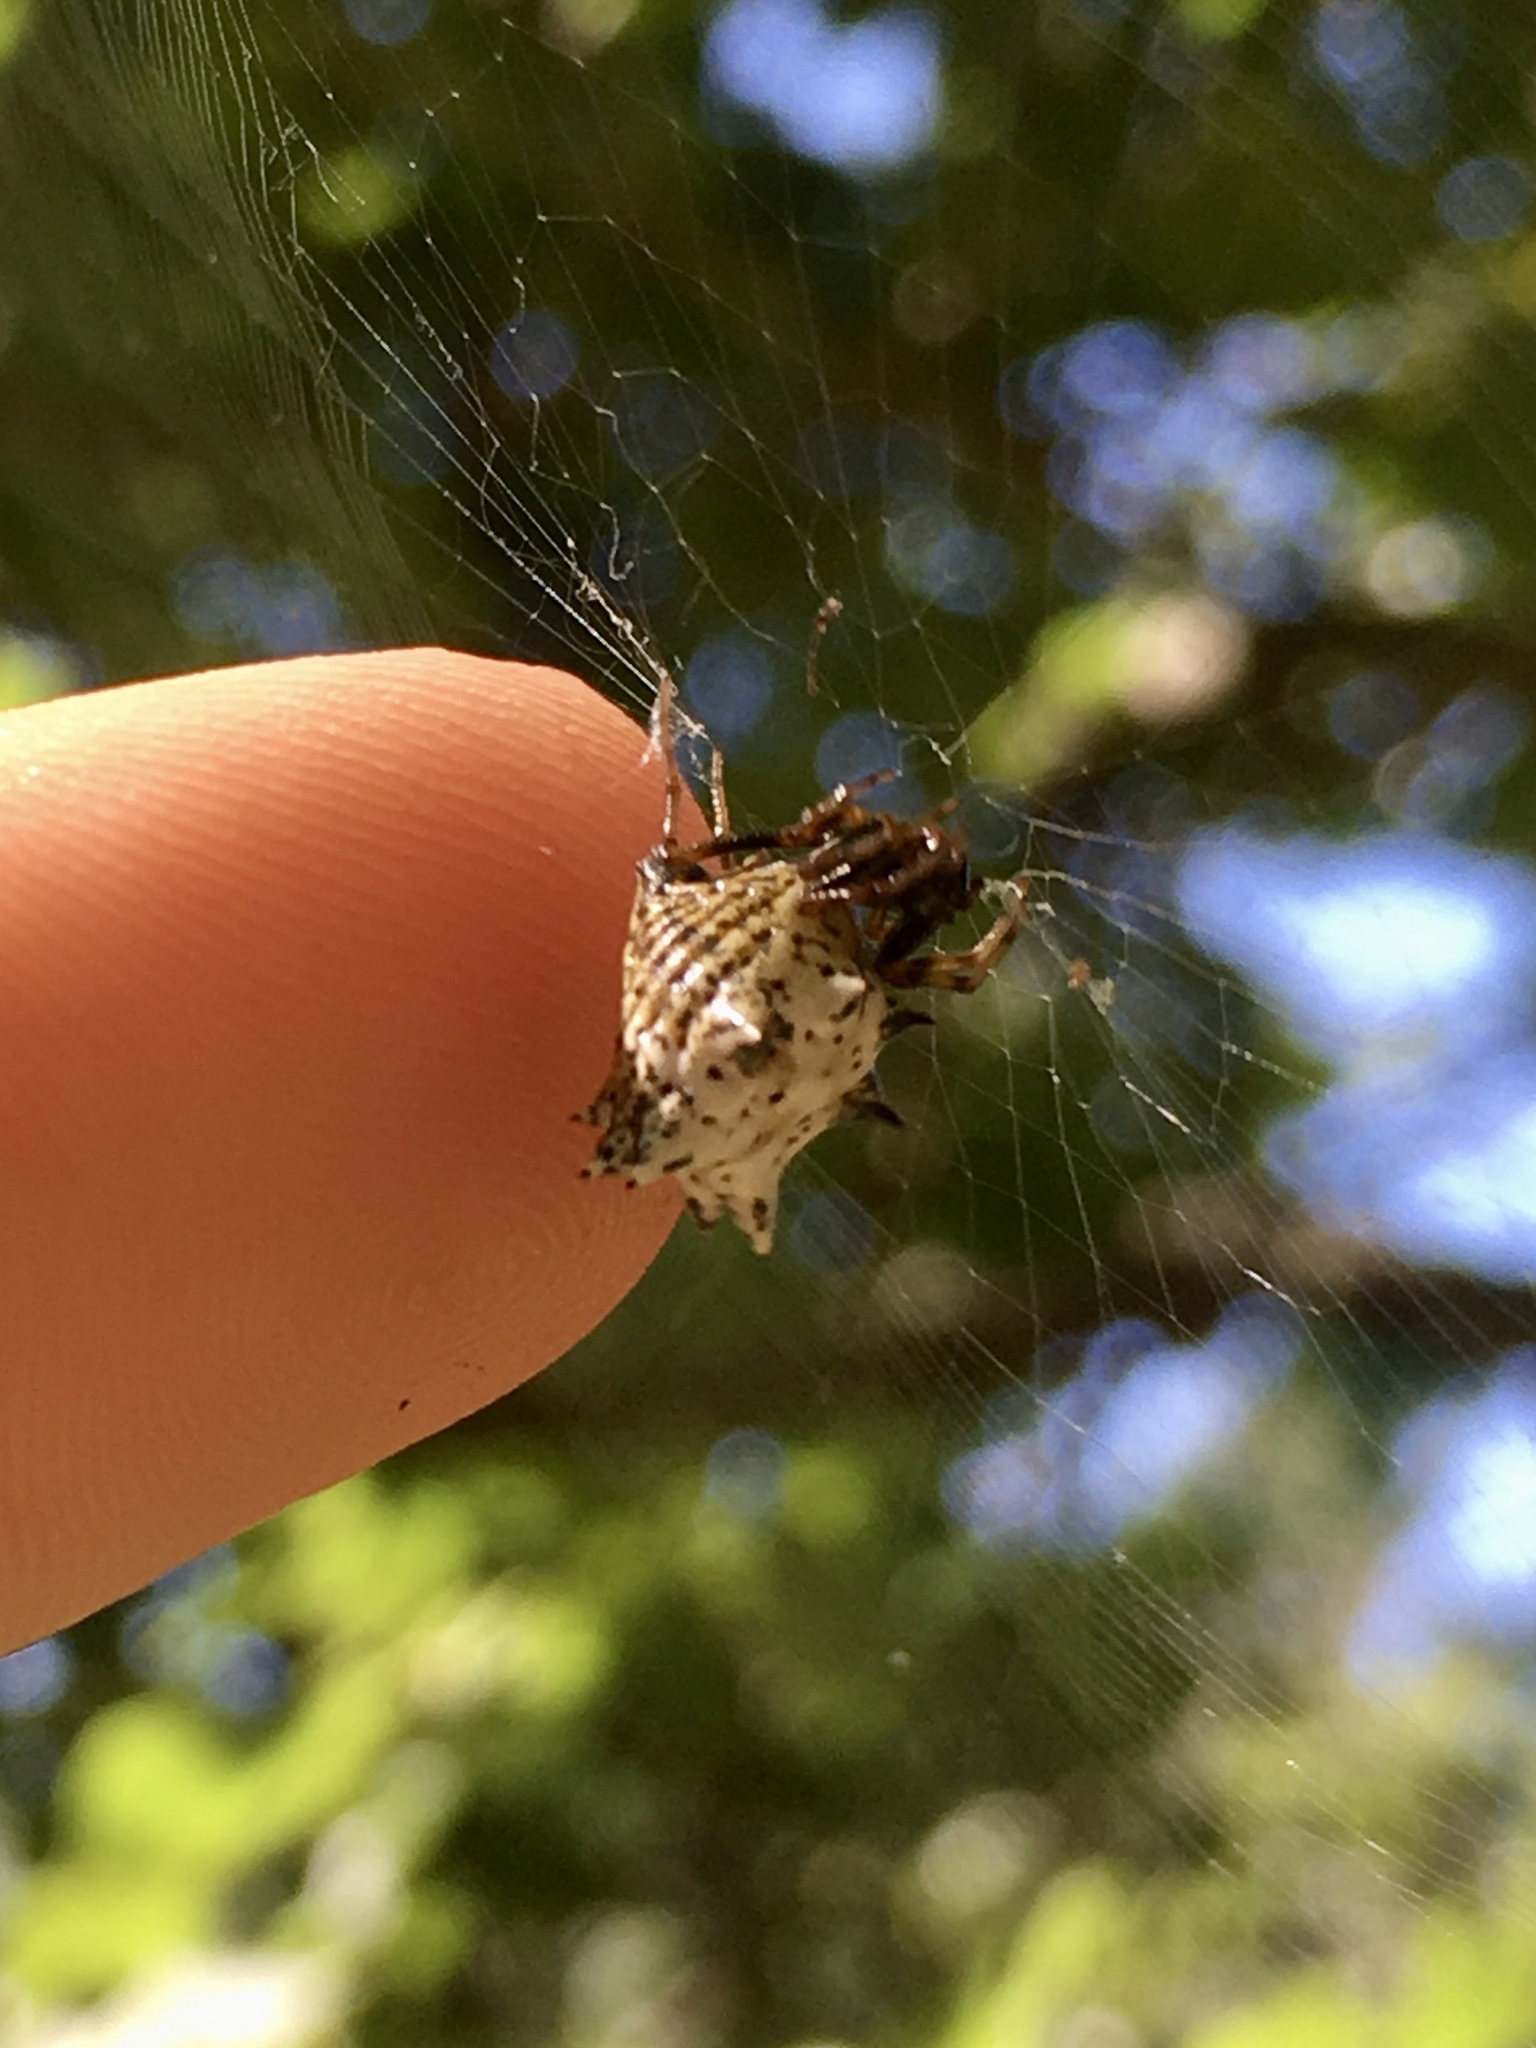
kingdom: Animalia
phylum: Arthropoda
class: Arachnida
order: Araneae
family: Araneidae
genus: Micrathena
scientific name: Micrathena gracilis
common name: Orb weavers
